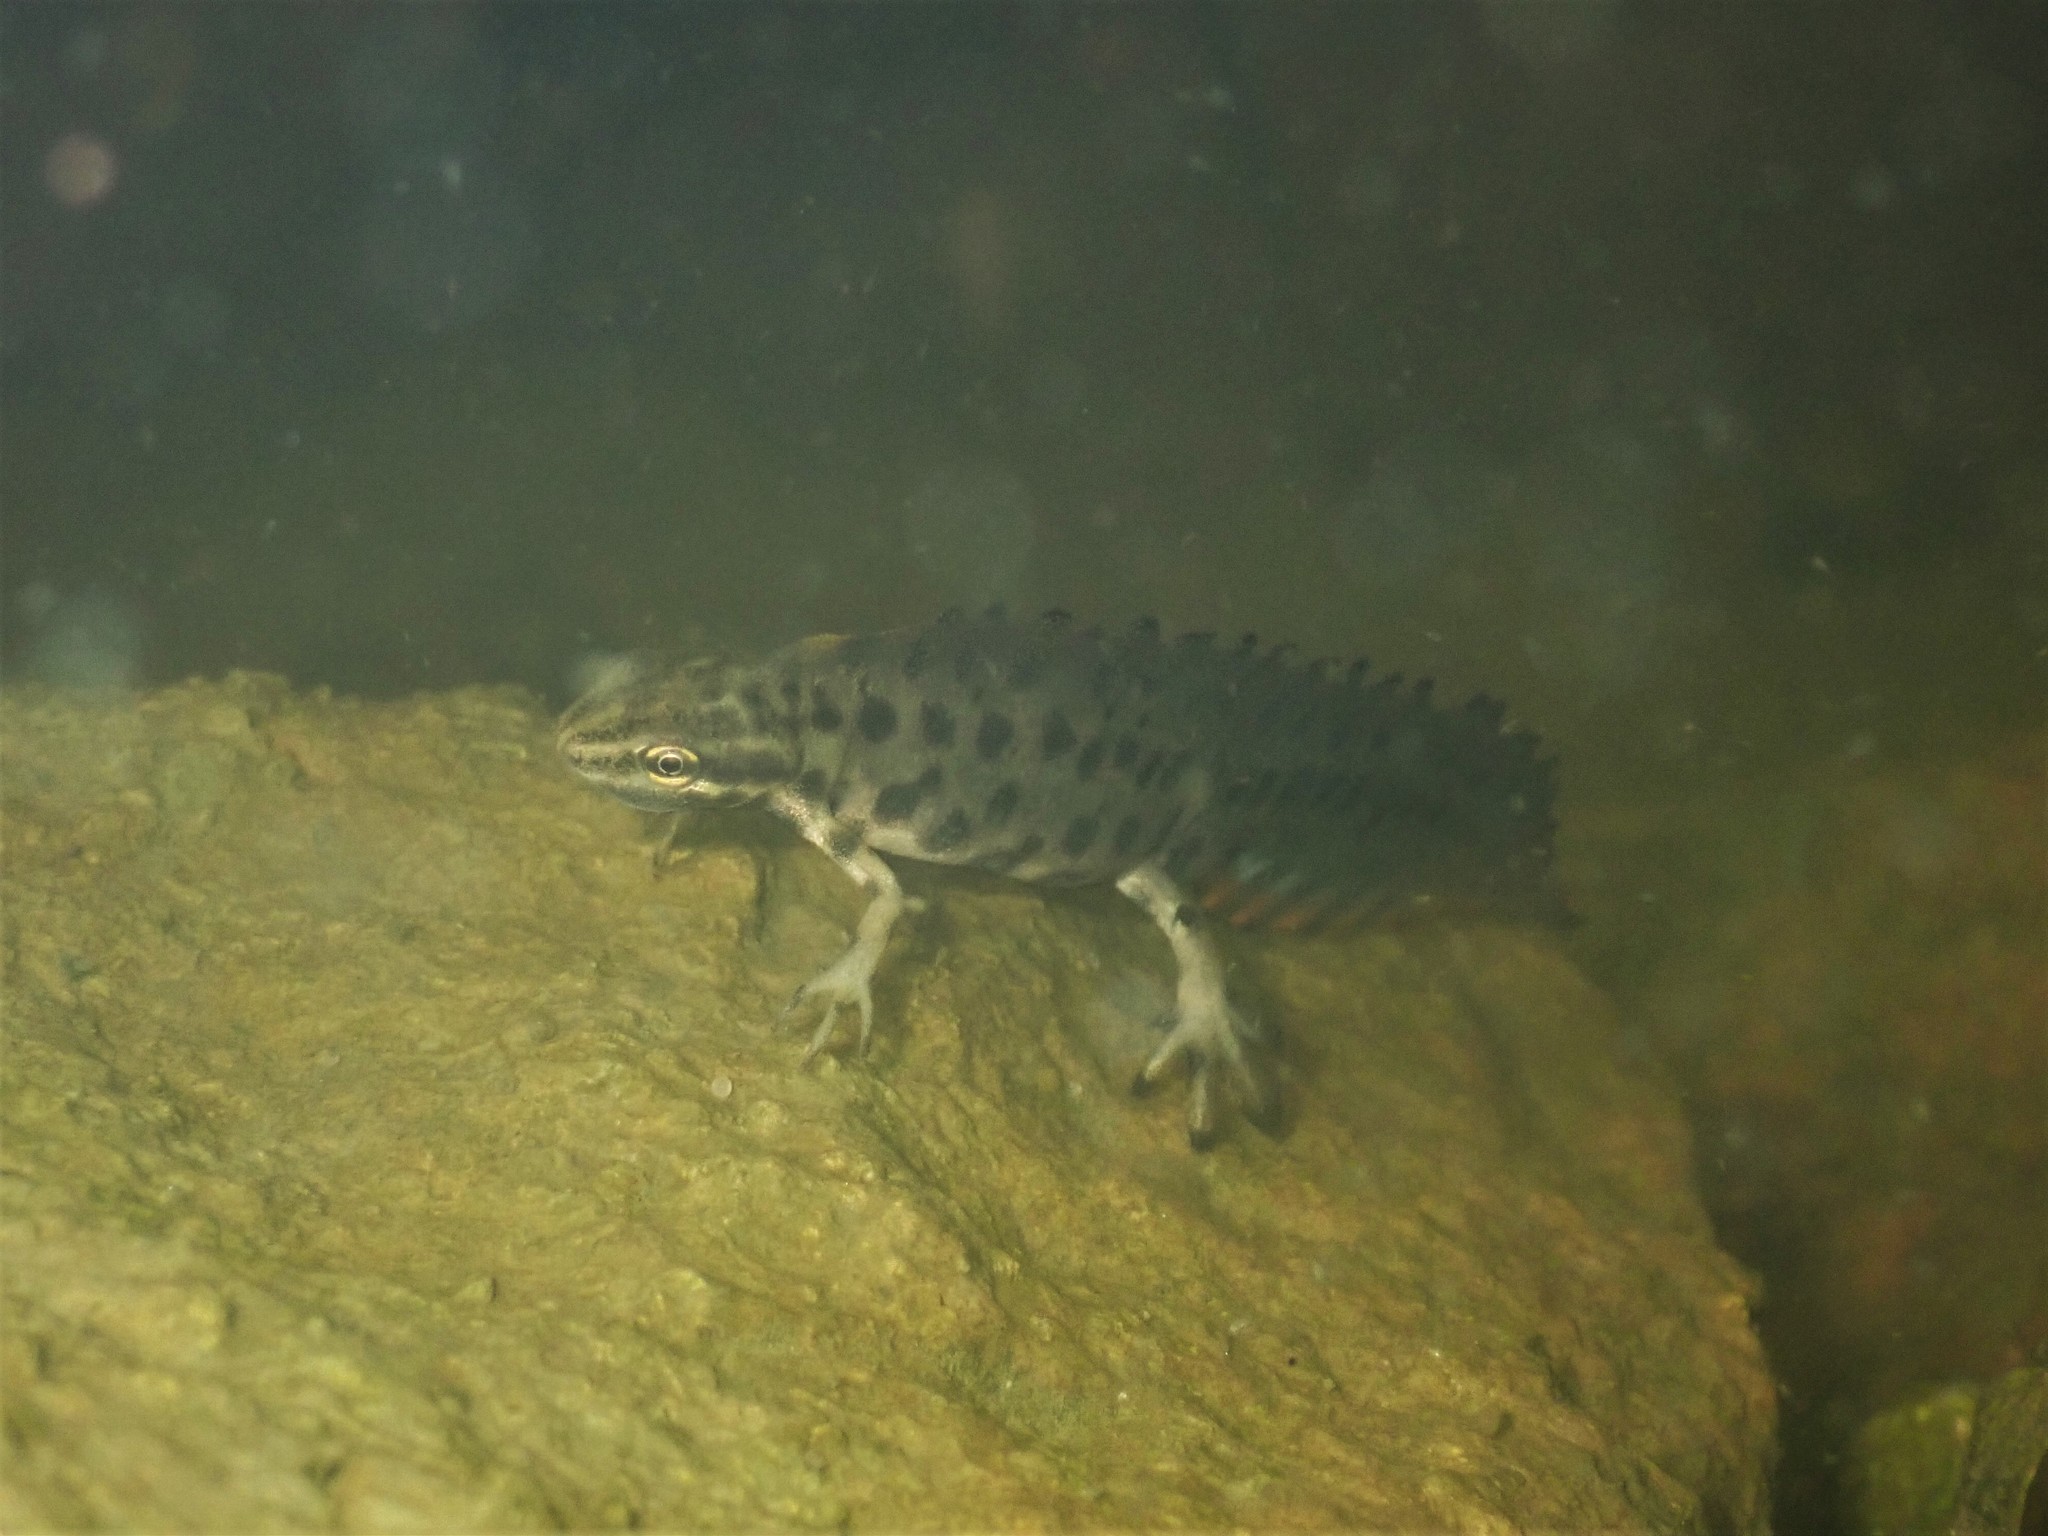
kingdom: Animalia
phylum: Chordata
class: Amphibia
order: Caudata
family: Salamandridae
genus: Lissotriton
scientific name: Lissotriton vulgaris
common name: Smooth newt
